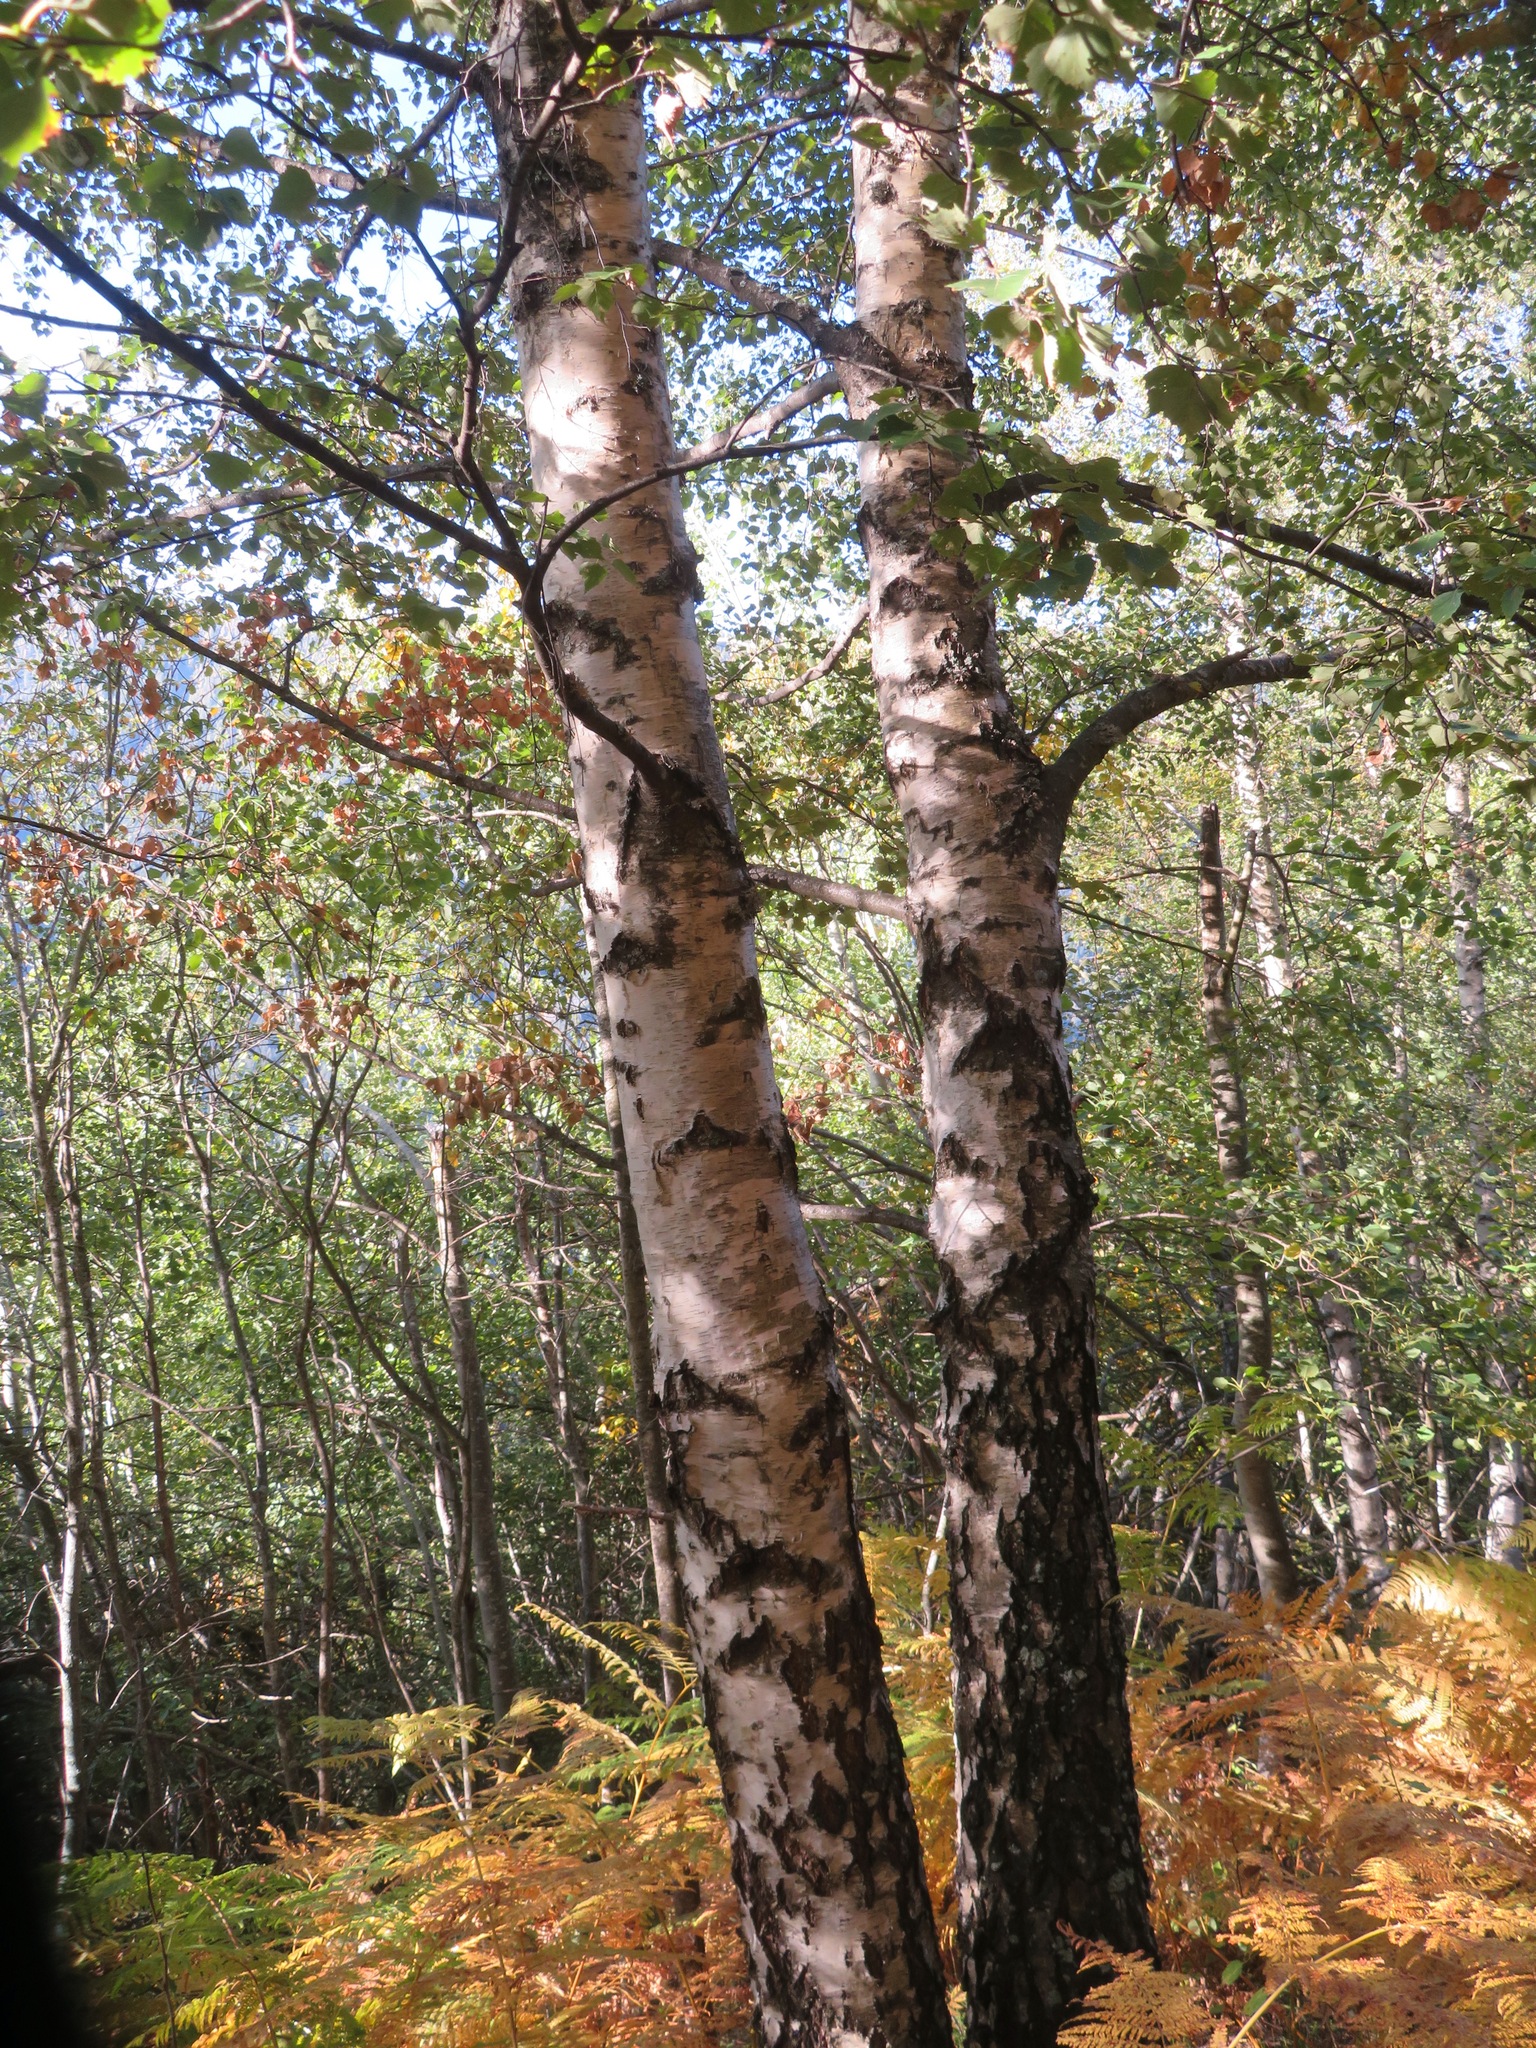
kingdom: Plantae
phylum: Tracheophyta
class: Magnoliopsida
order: Fagales
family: Betulaceae
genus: Betula
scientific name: Betula pendula
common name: Silver birch
